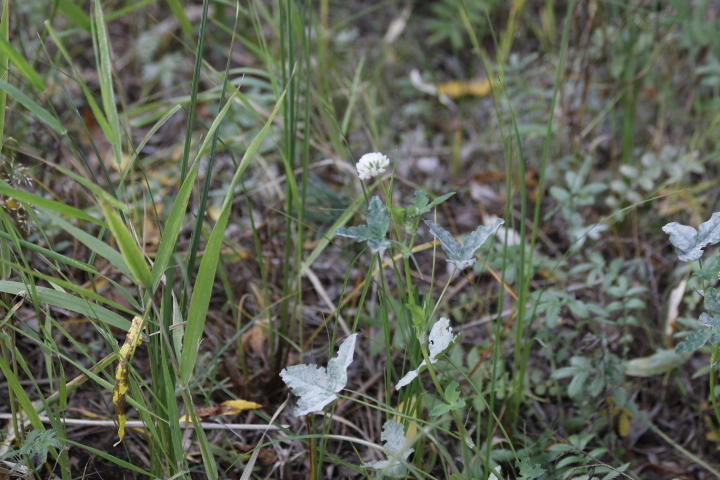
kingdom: Plantae
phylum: Tracheophyta
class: Magnoliopsida
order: Fabales
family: Fabaceae
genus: Trifolium
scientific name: Trifolium hybridum
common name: Alsike clover
